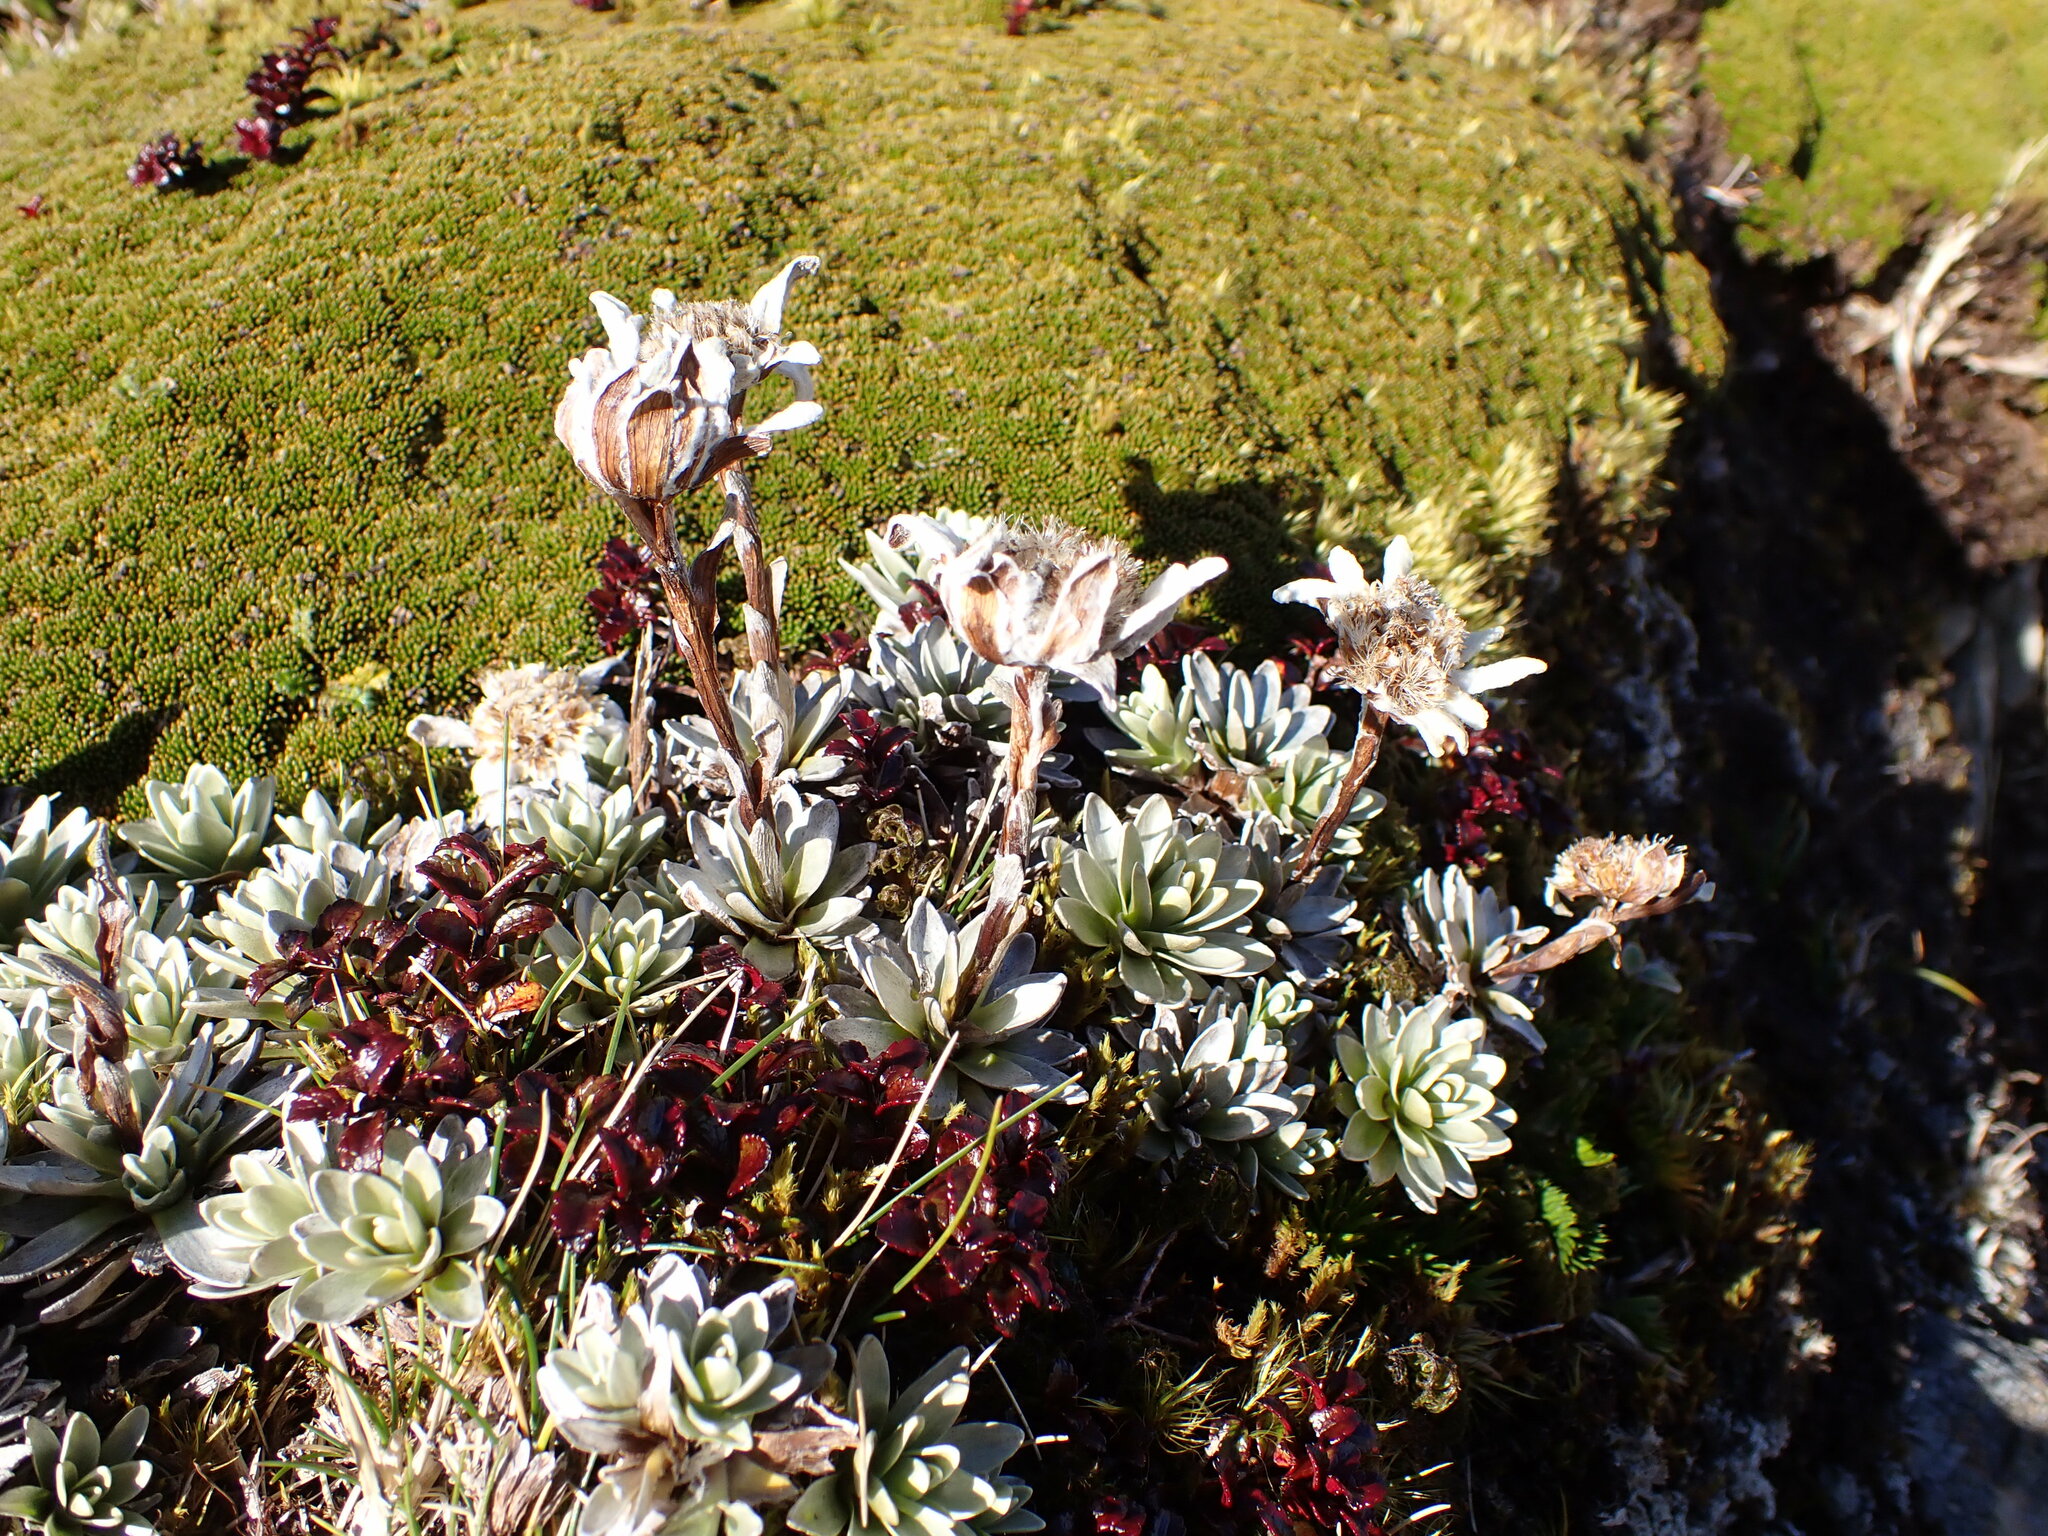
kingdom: Plantae
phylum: Tracheophyta
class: Magnoliopsida
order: Asterales
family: Asteraceae
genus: Leucogenes
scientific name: Leucogenes leontopodium
